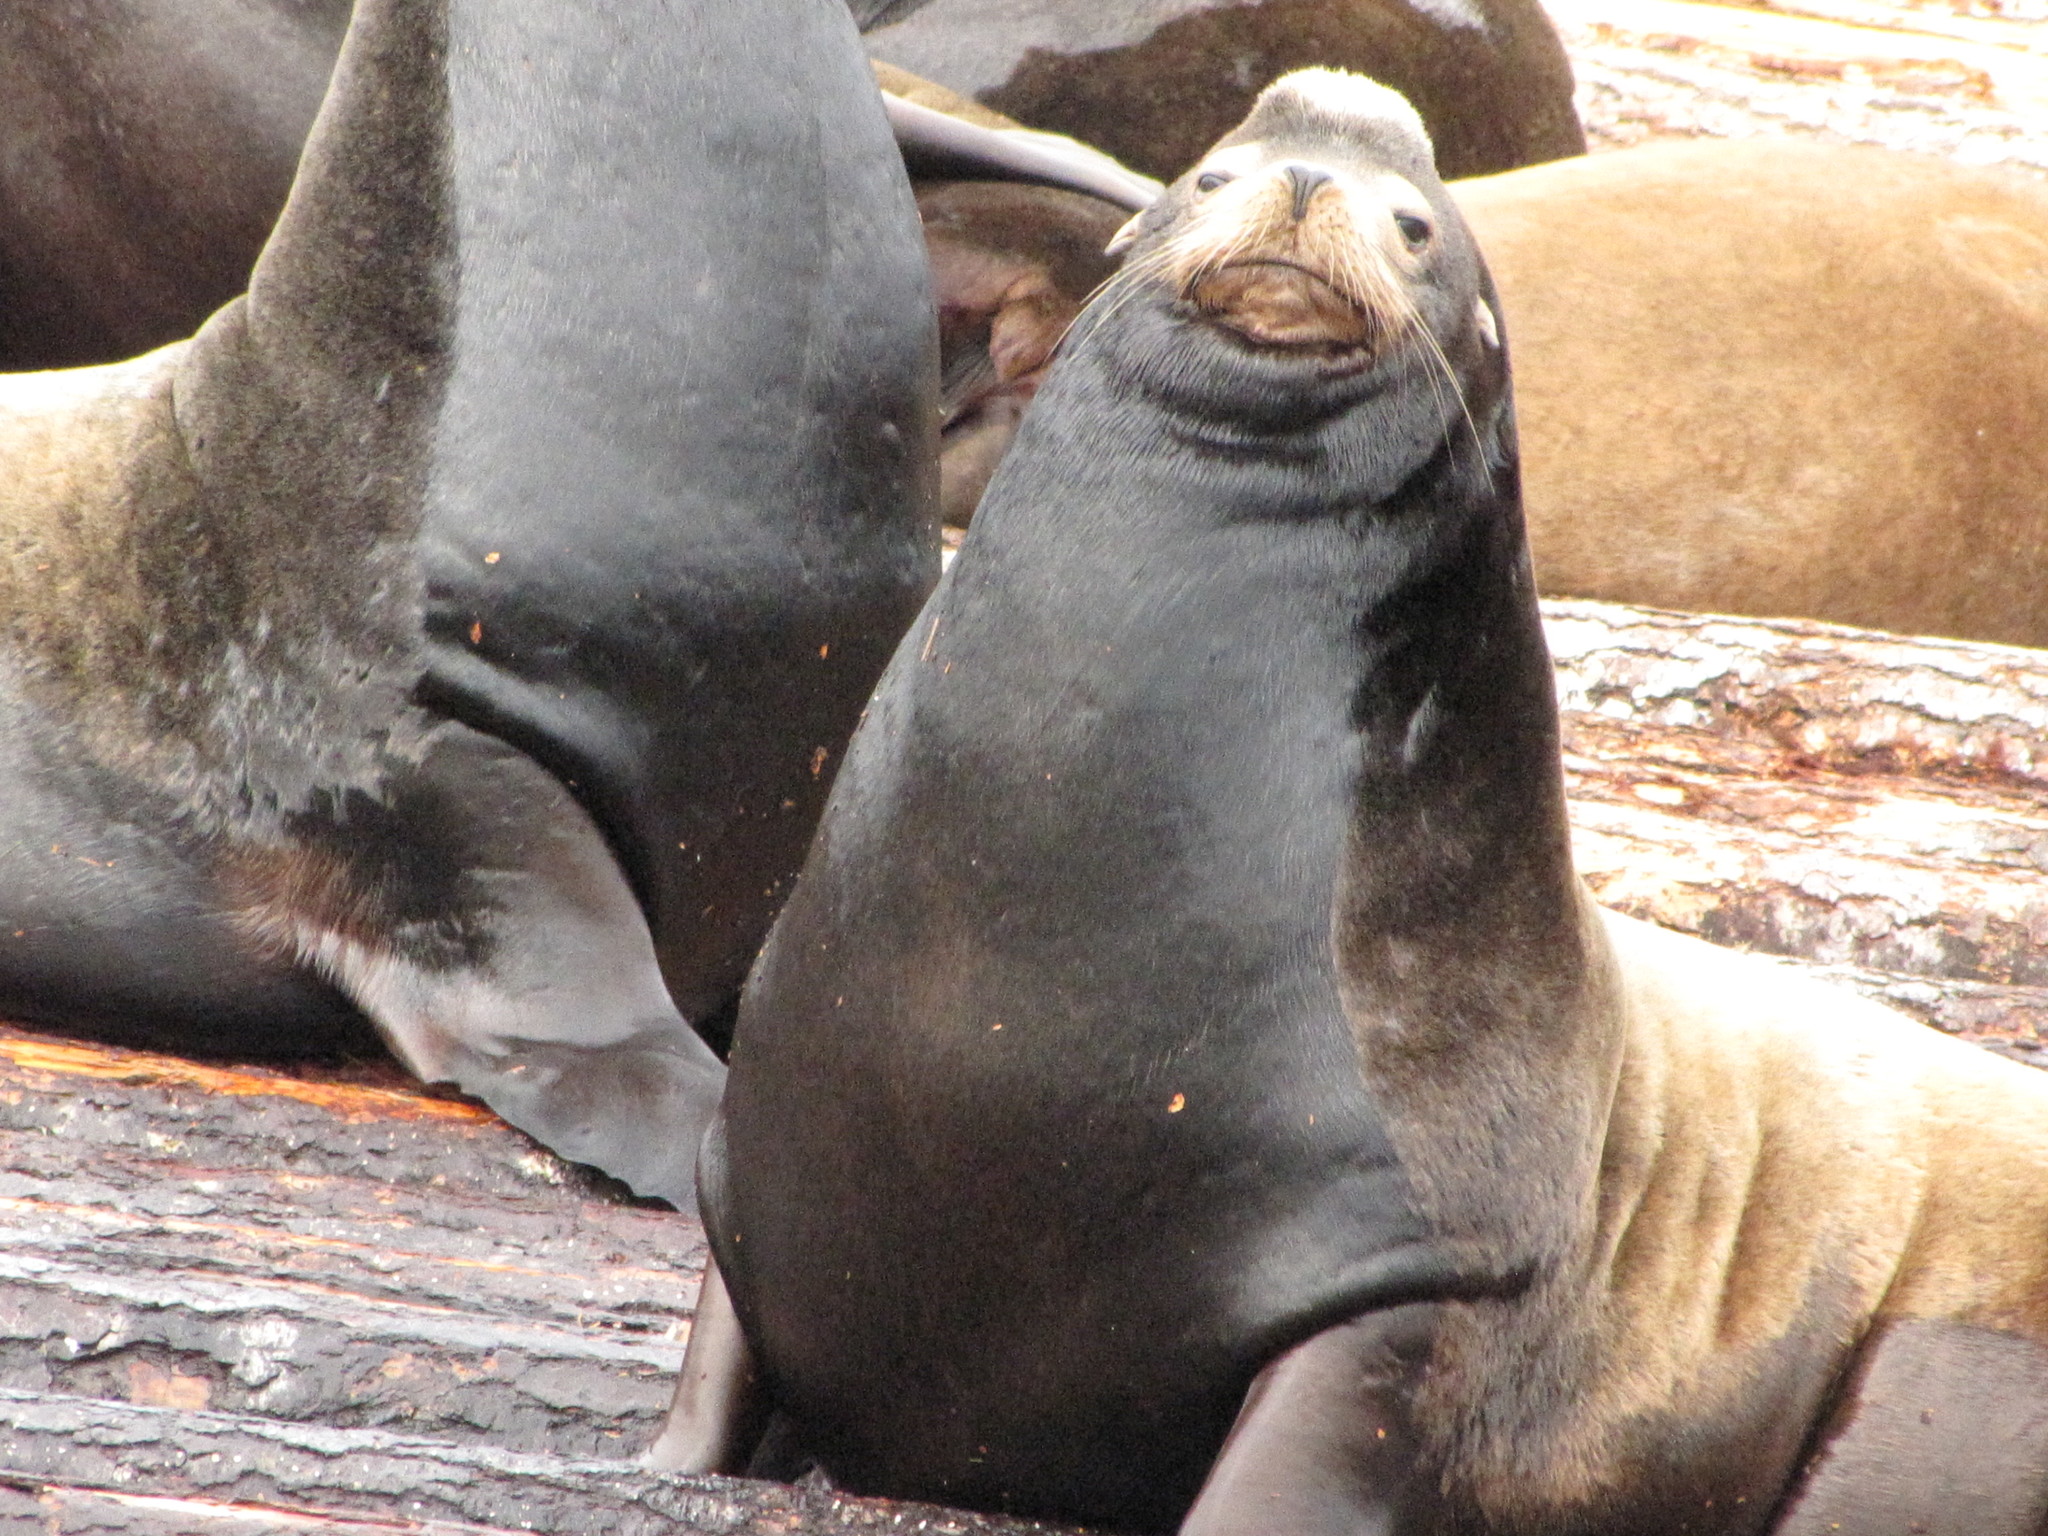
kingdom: Animalia
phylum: Chordata
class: Mammalia
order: Carnivora
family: Otariidae
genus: Zalophus
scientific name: Zalophus californianus
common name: California sea lion
